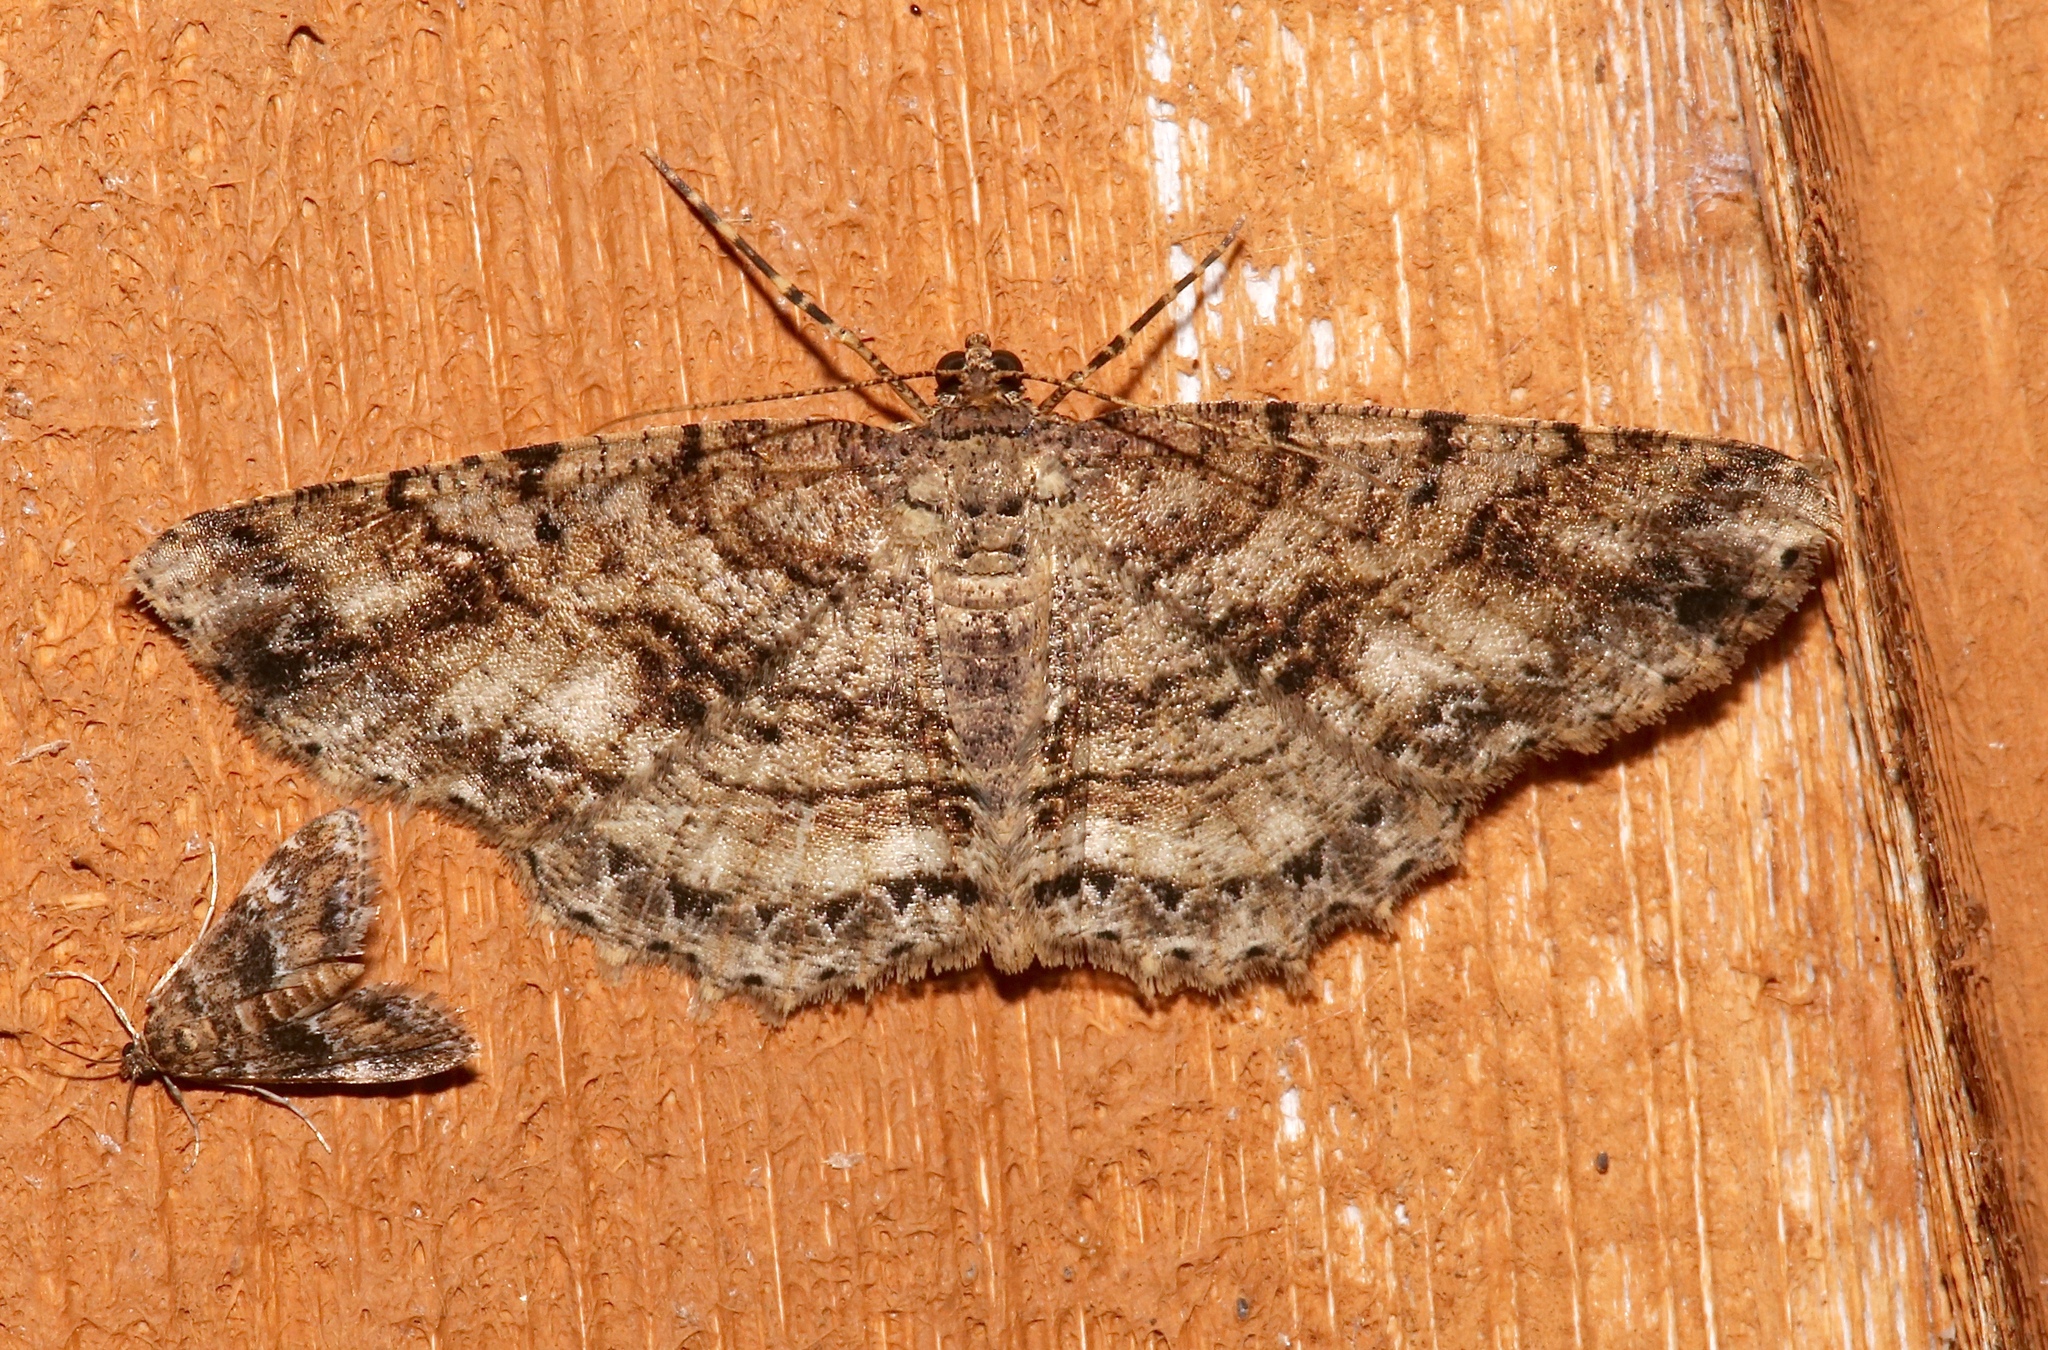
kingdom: Animalia
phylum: Arthropoda
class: Insecta
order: Lepidoptera
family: Geometridae
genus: Melanolophia
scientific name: Melanolophia canadaria
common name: Canadian melanolophia
